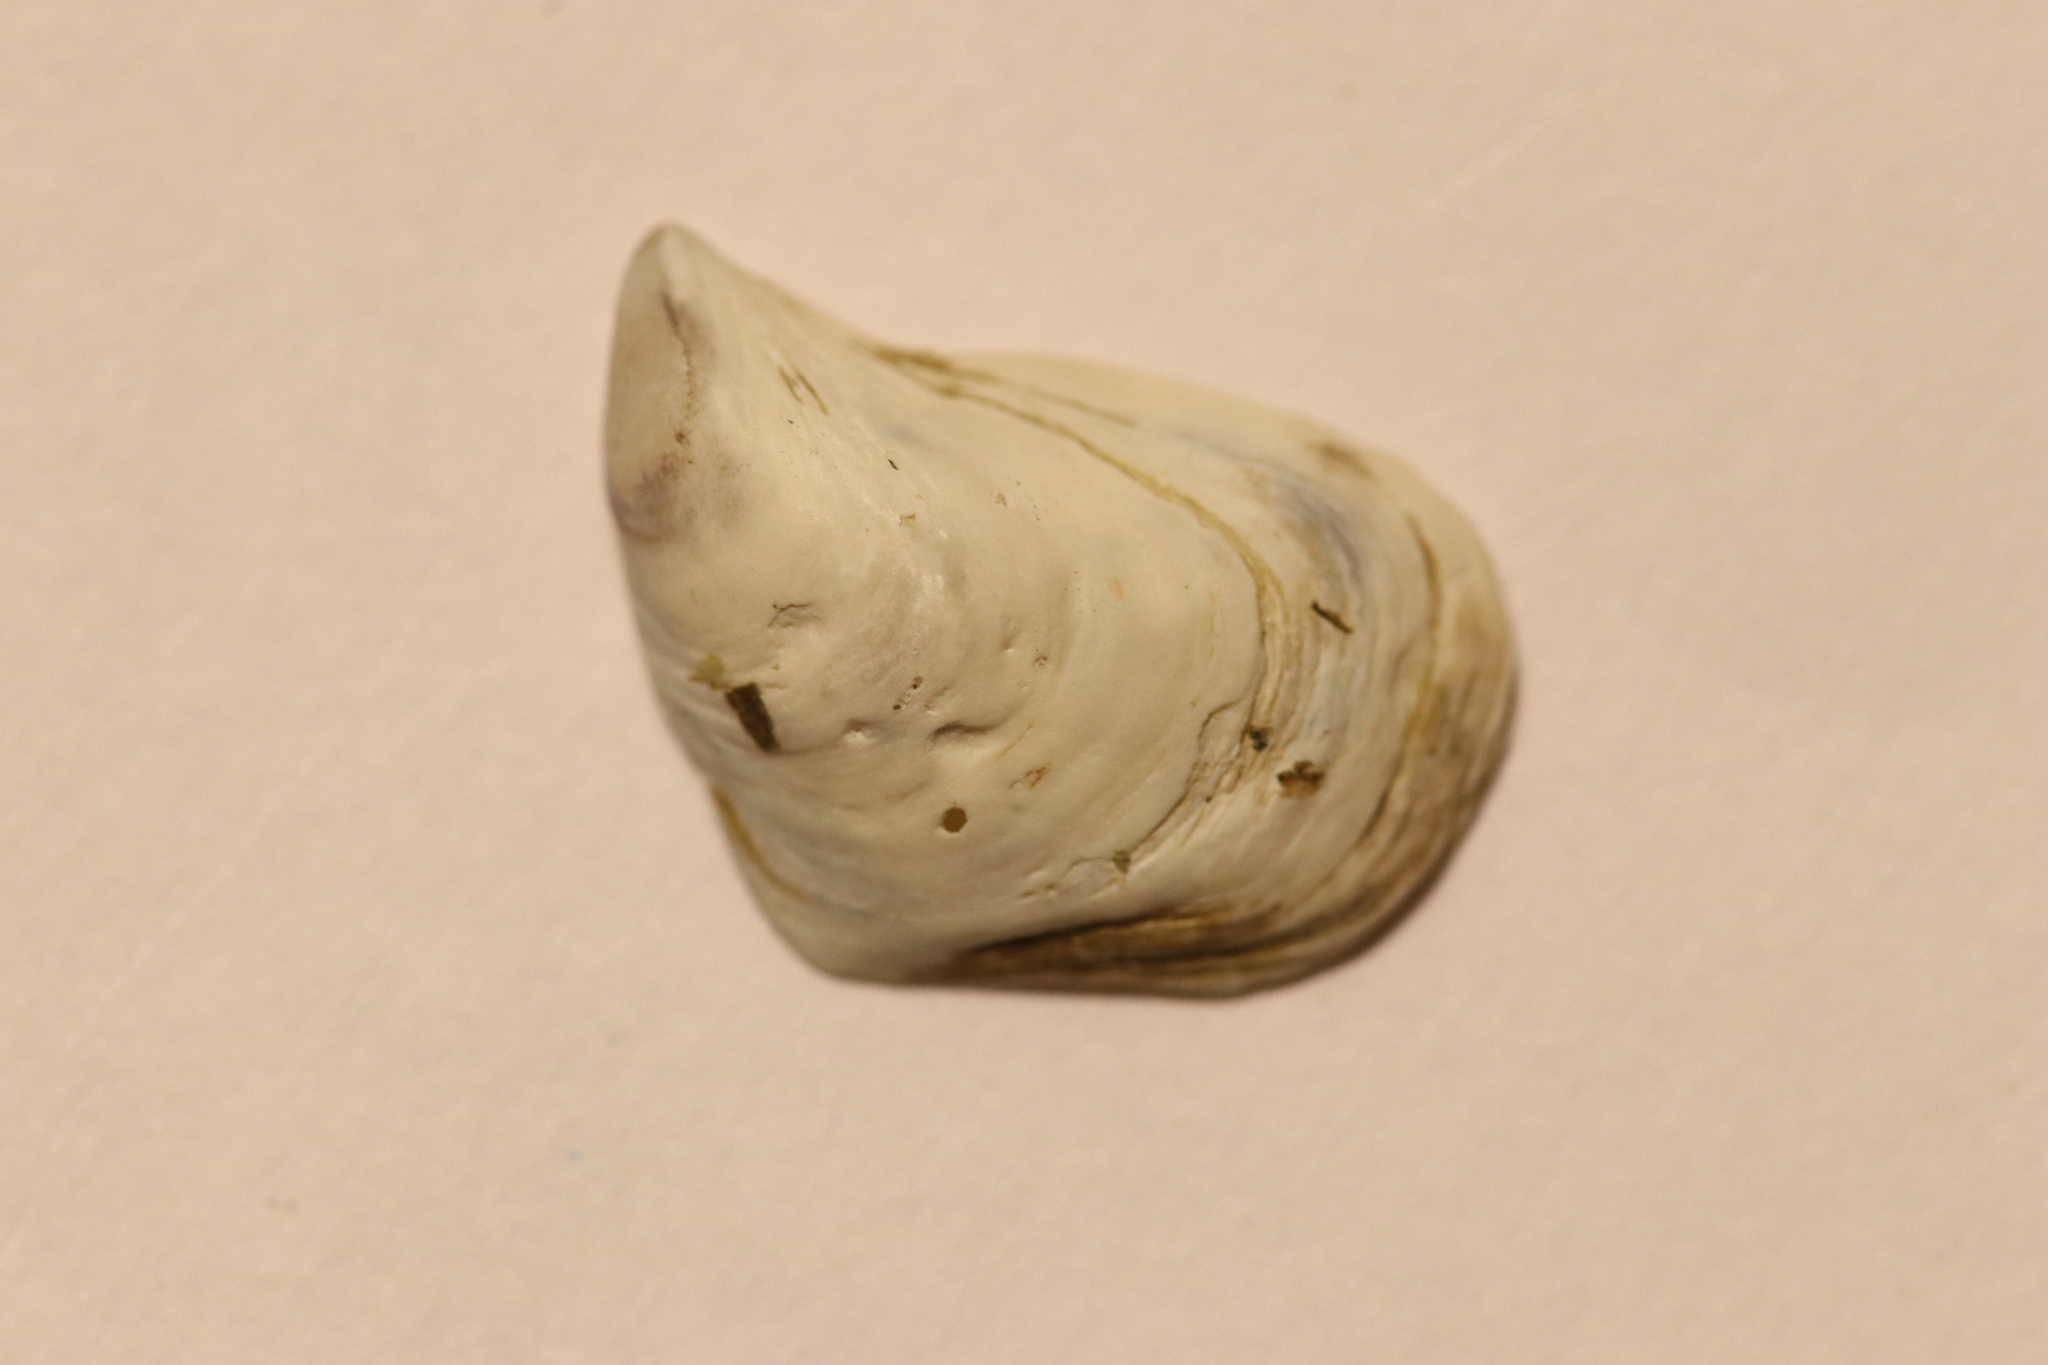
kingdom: Animalia
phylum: Mollusca
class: Bivalvia
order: Myida
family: Dreissenidae
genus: Dreissena
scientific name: Dreissena bugensis
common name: Quagga mussel
